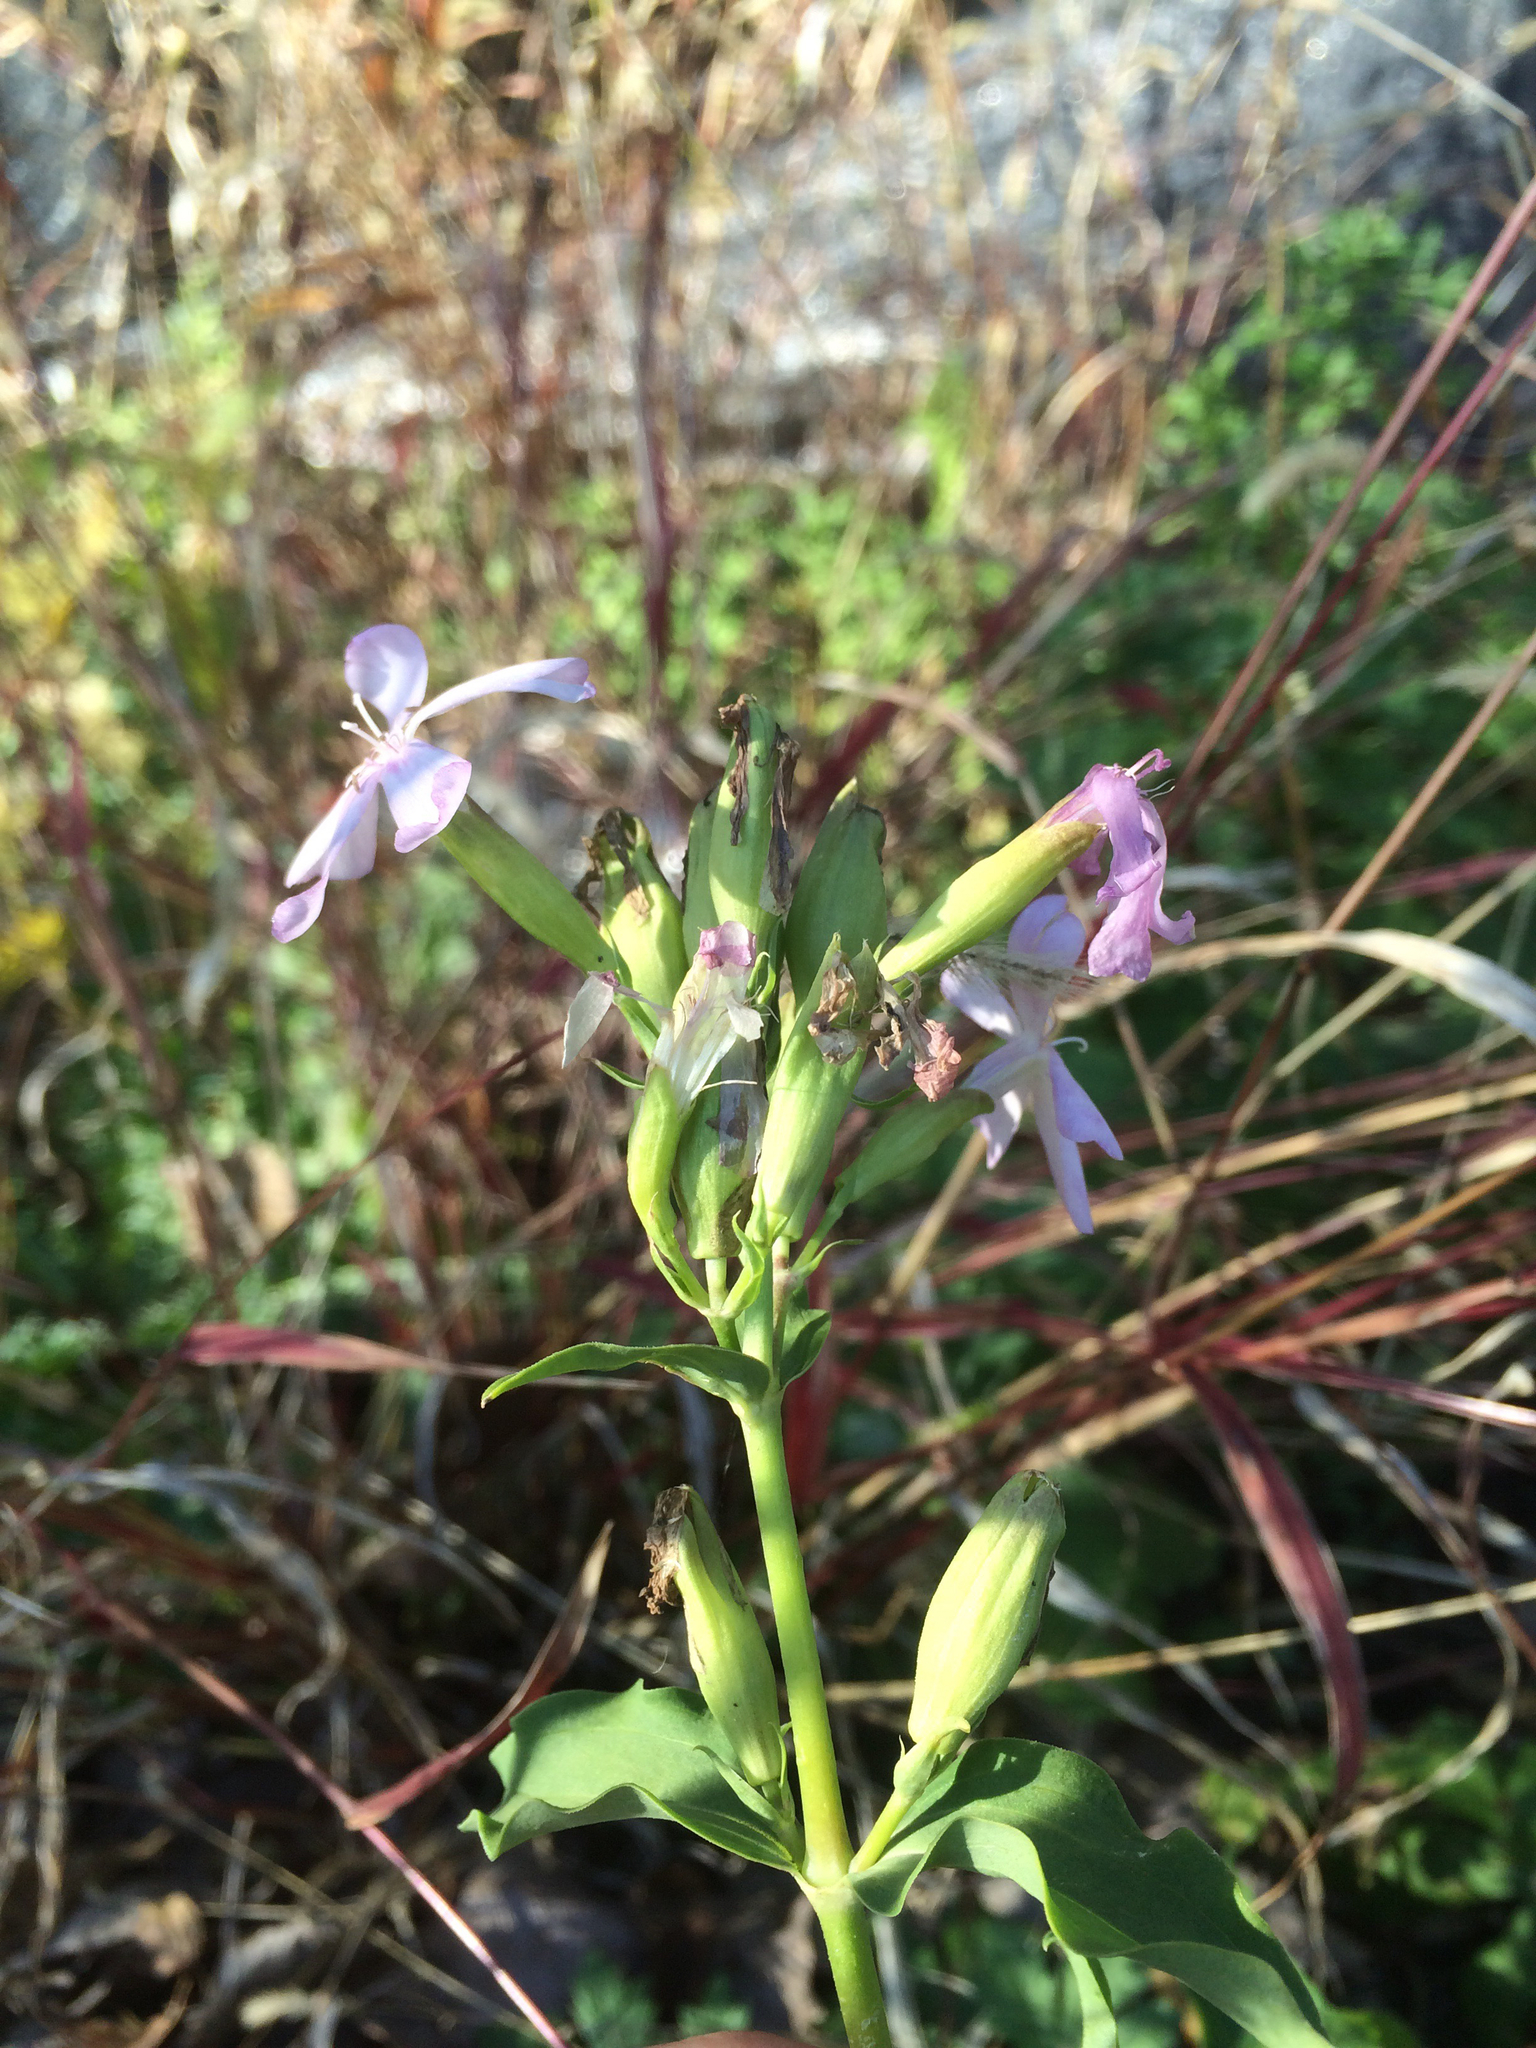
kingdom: Plantae
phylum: Tracheophyta
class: Magnoliopsida
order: Caryophyllales
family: Caryophyllaceae
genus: Saponaria
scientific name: Saponaria officinalis
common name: Soapwort
